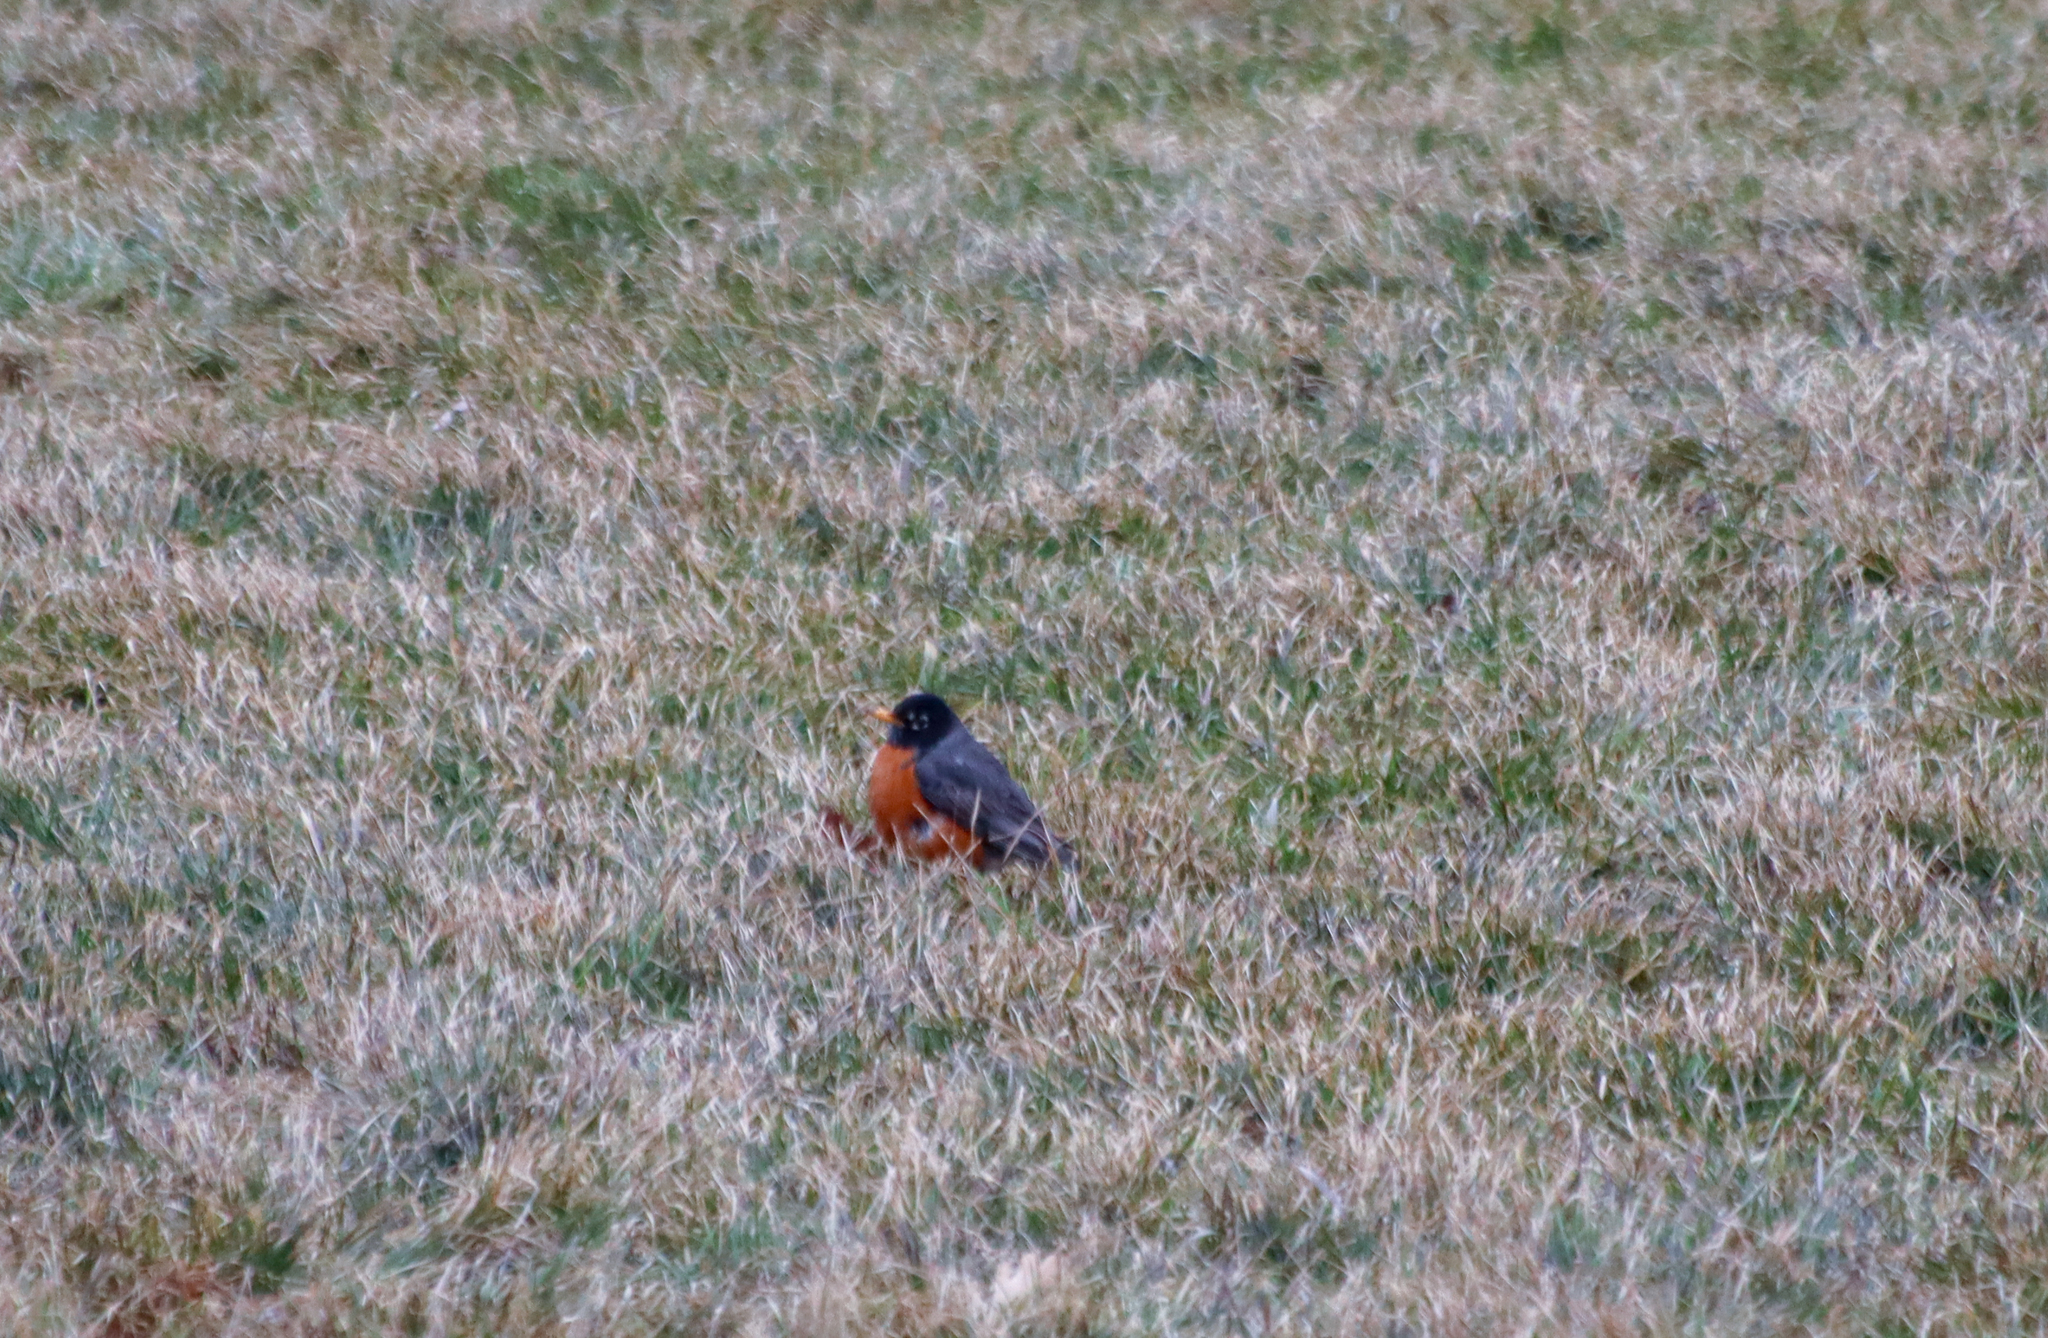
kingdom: Animalia
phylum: Chordata
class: Aves
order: Passeriformes
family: Turdidae
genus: Turdus
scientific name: Turdus migratorius
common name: American robin
